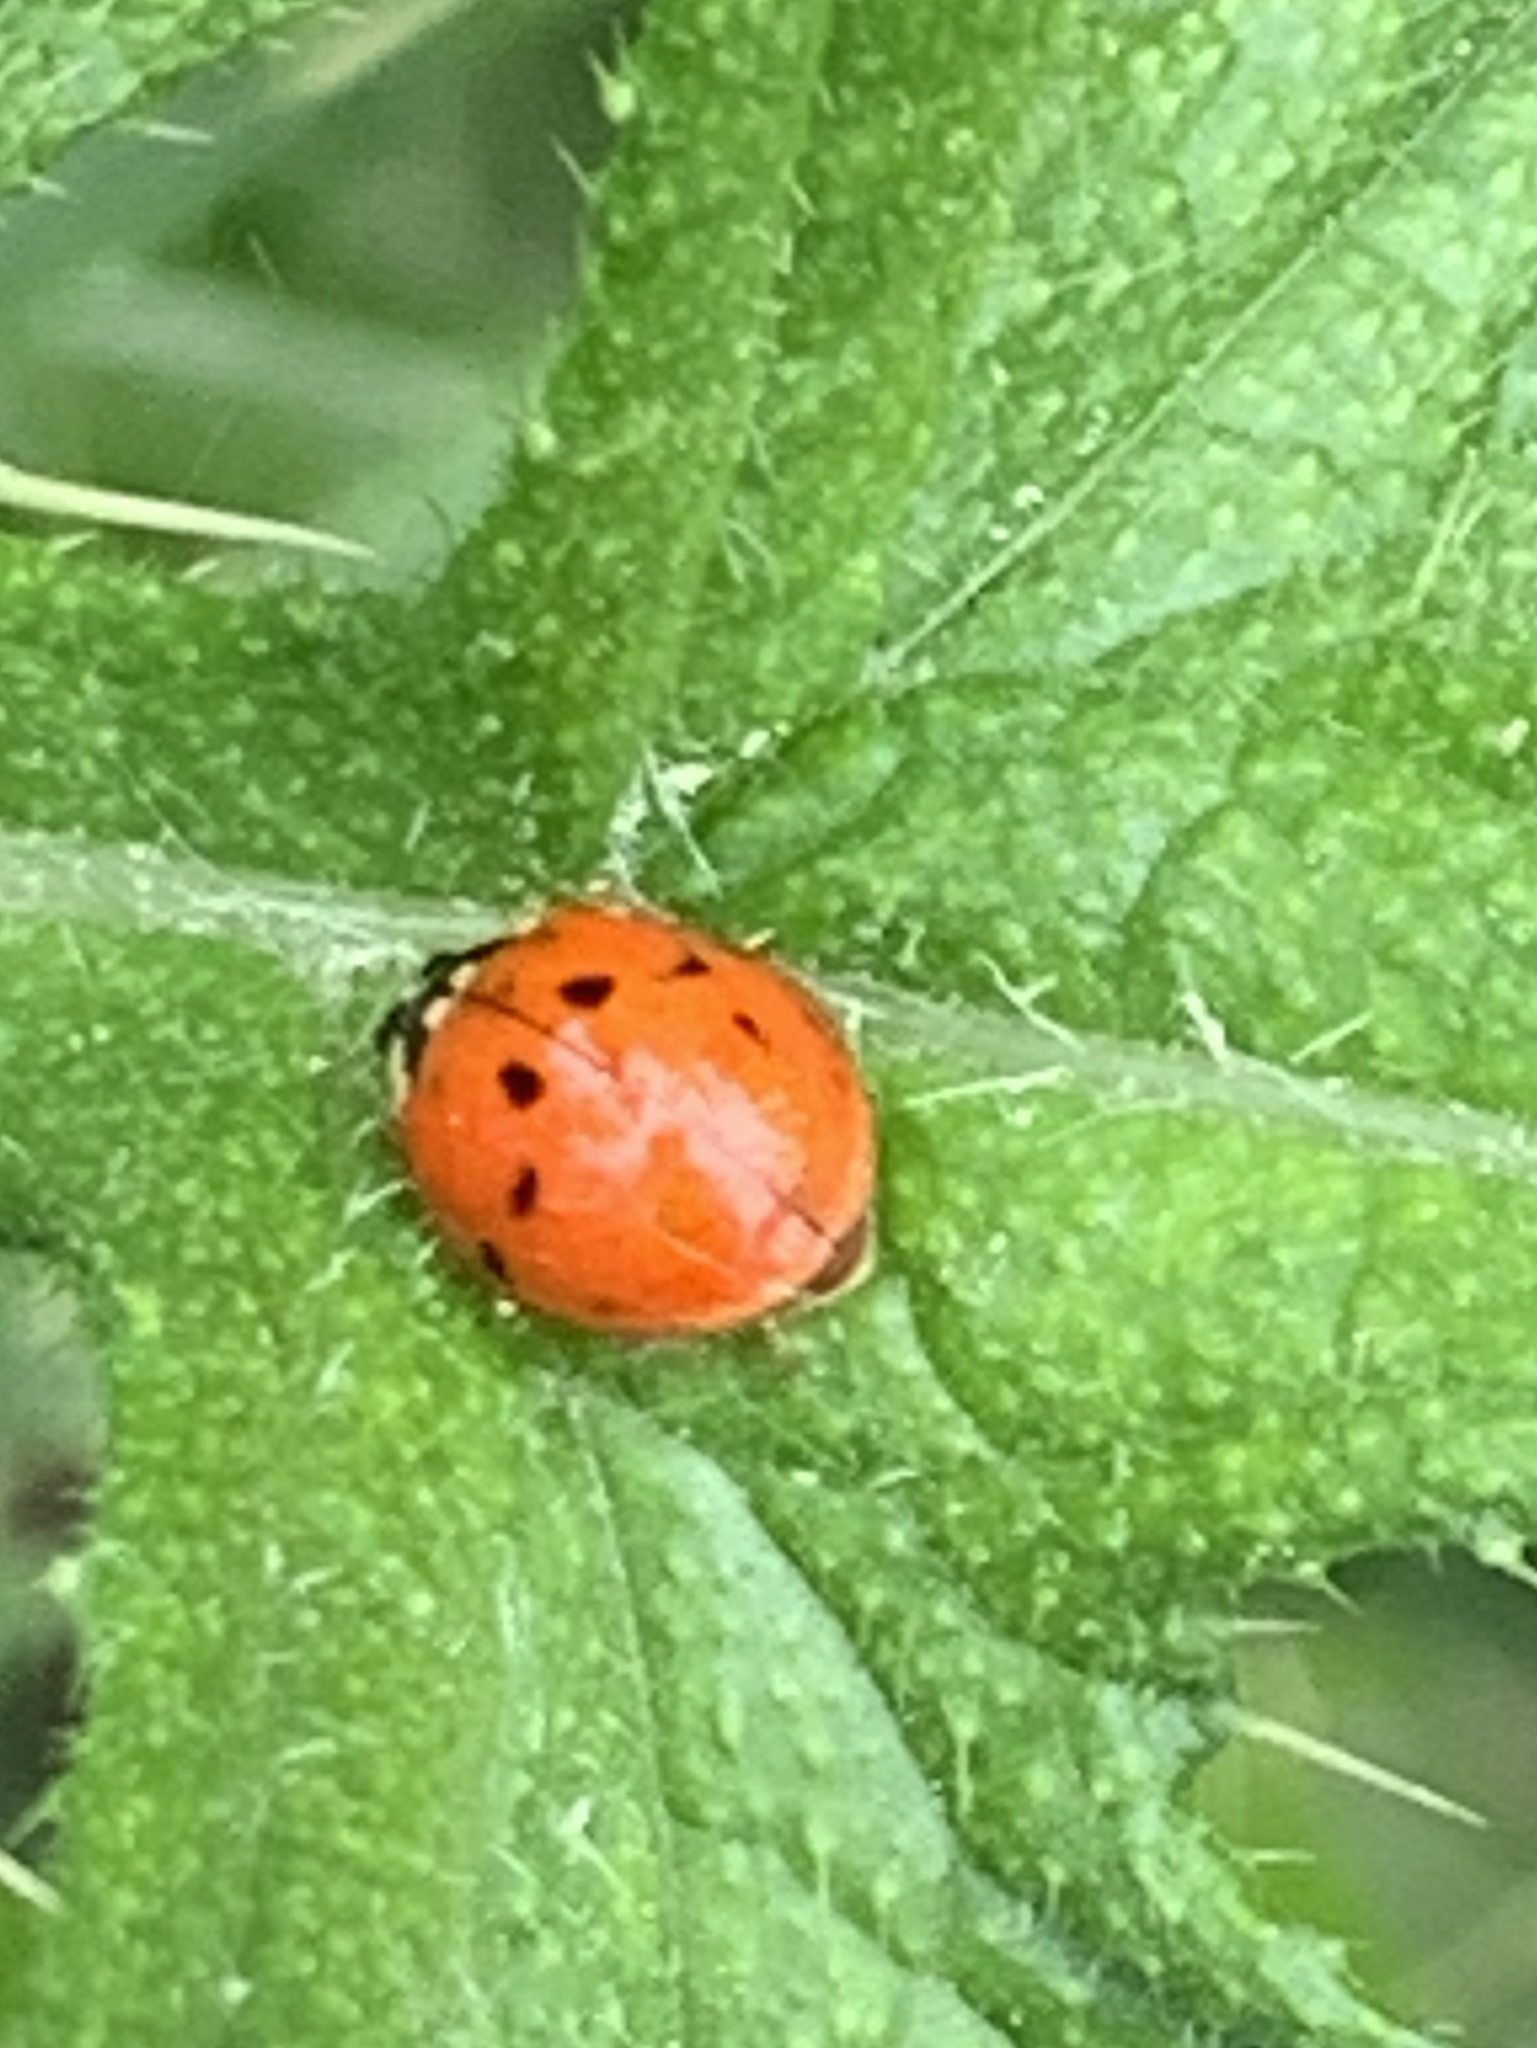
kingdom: Animalia
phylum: Arthropoda
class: Insecta
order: Coleoptera
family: Coccinellidae
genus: Harmonia
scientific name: Harmonia axyridis
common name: Harlequin ladybird
